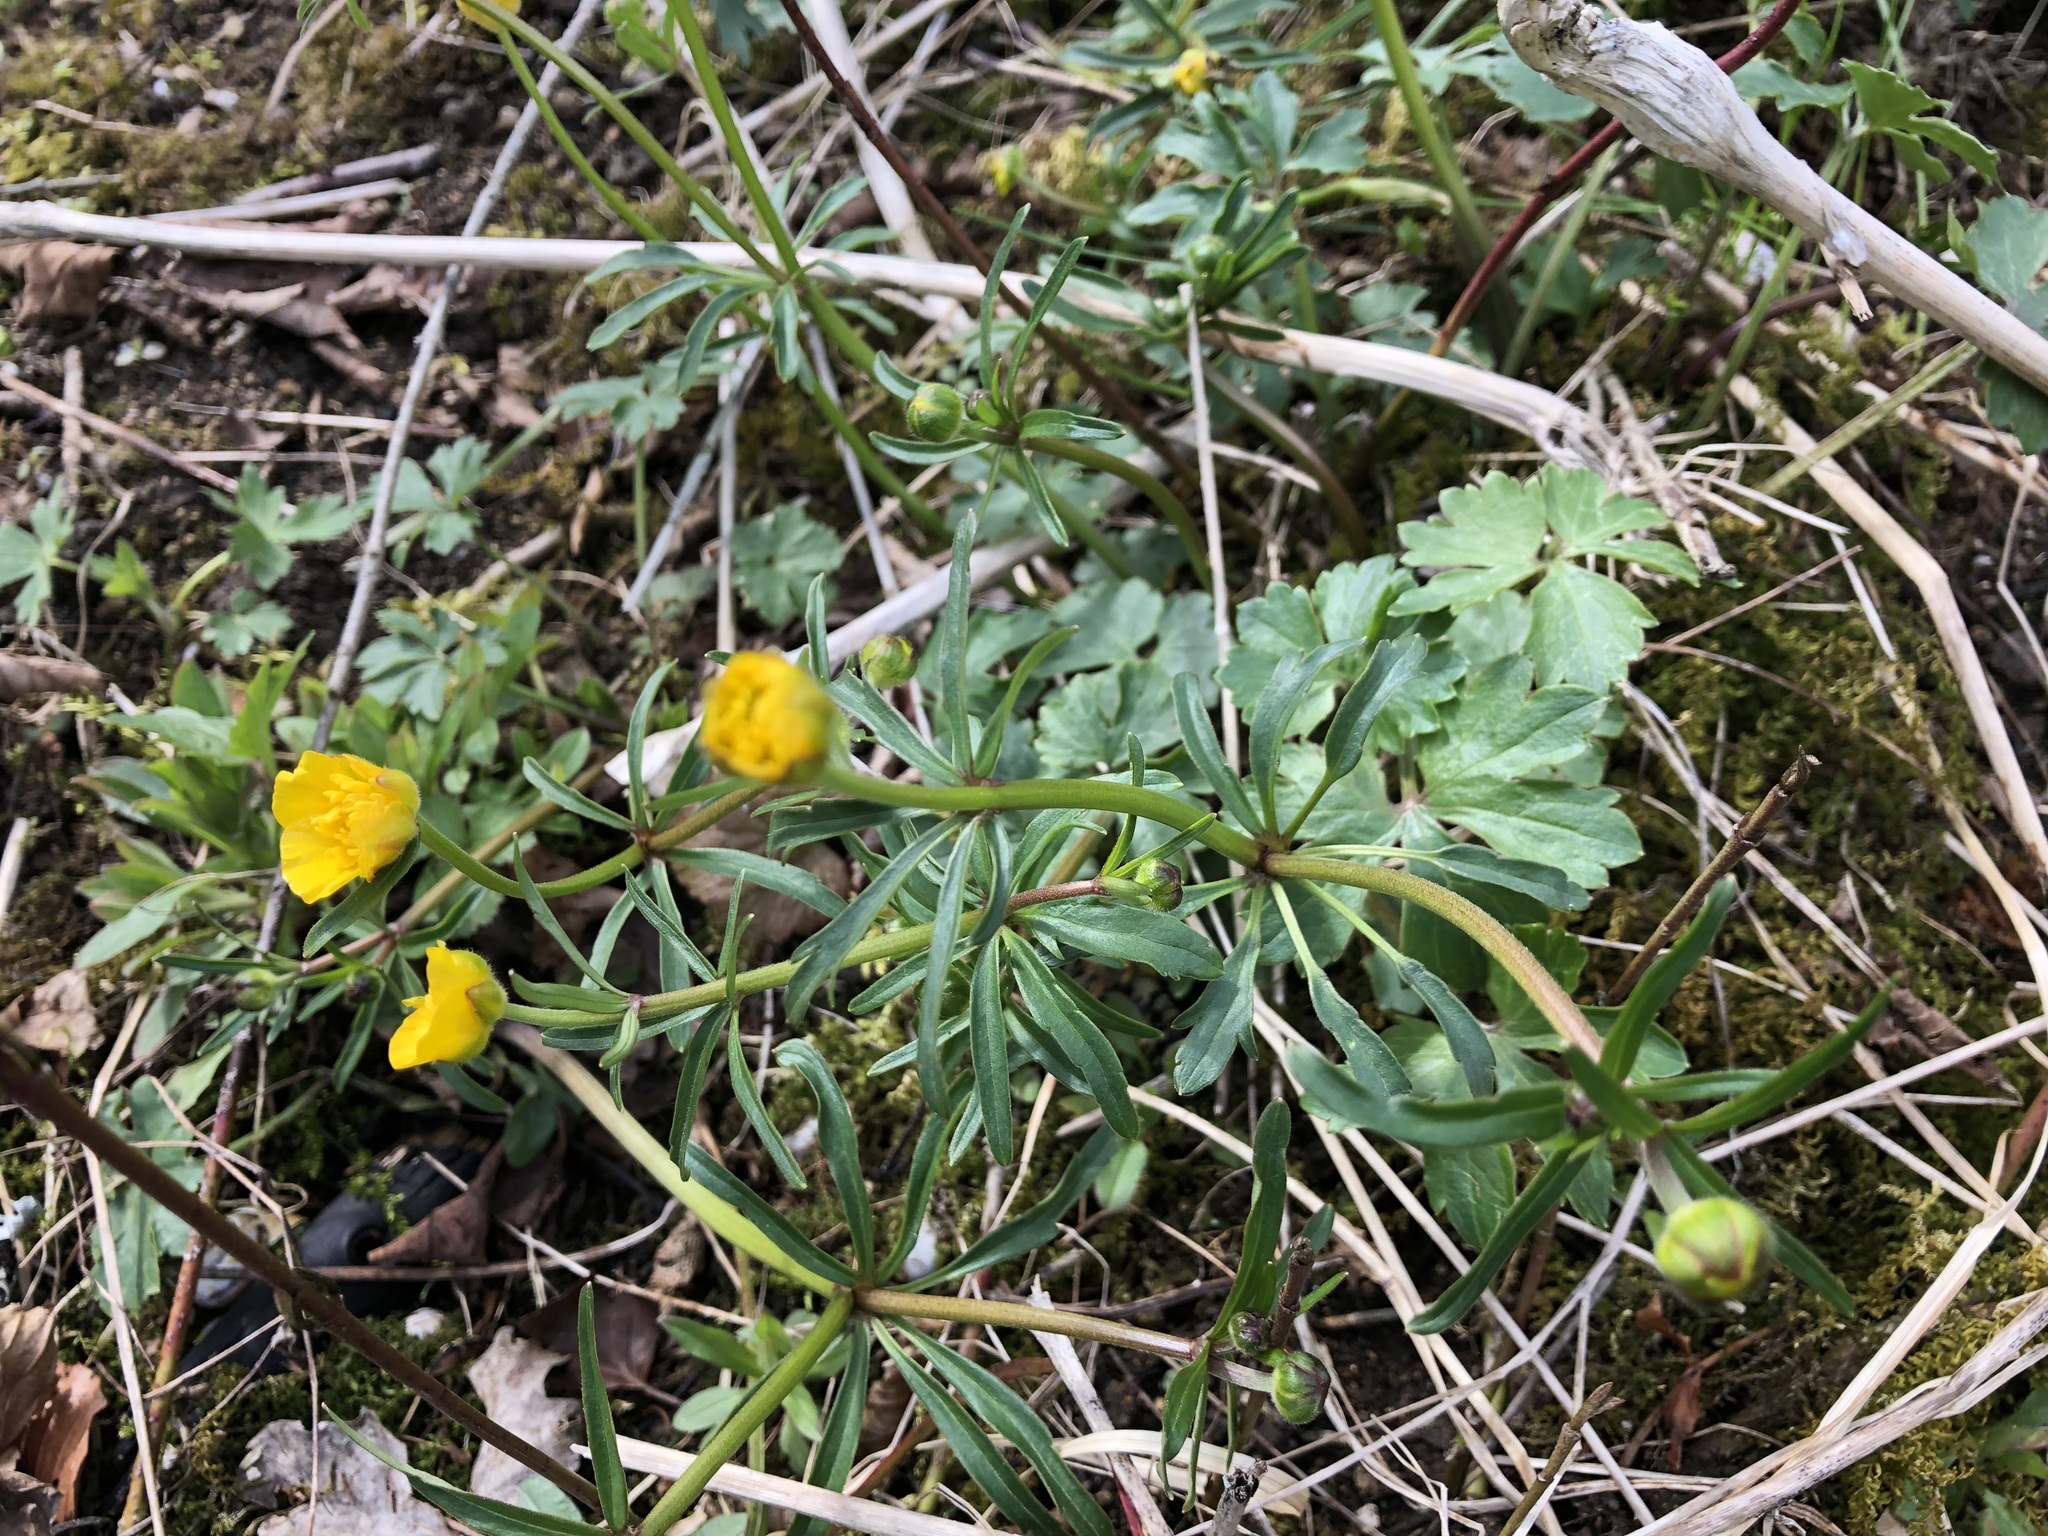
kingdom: Plantae
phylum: Tracheophyta
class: Magnoliopsida
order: Ranunculales
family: Ranunculaceae
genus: Ranunculus
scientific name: Ranunculus auricomus
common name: Goldilocks buttercup
